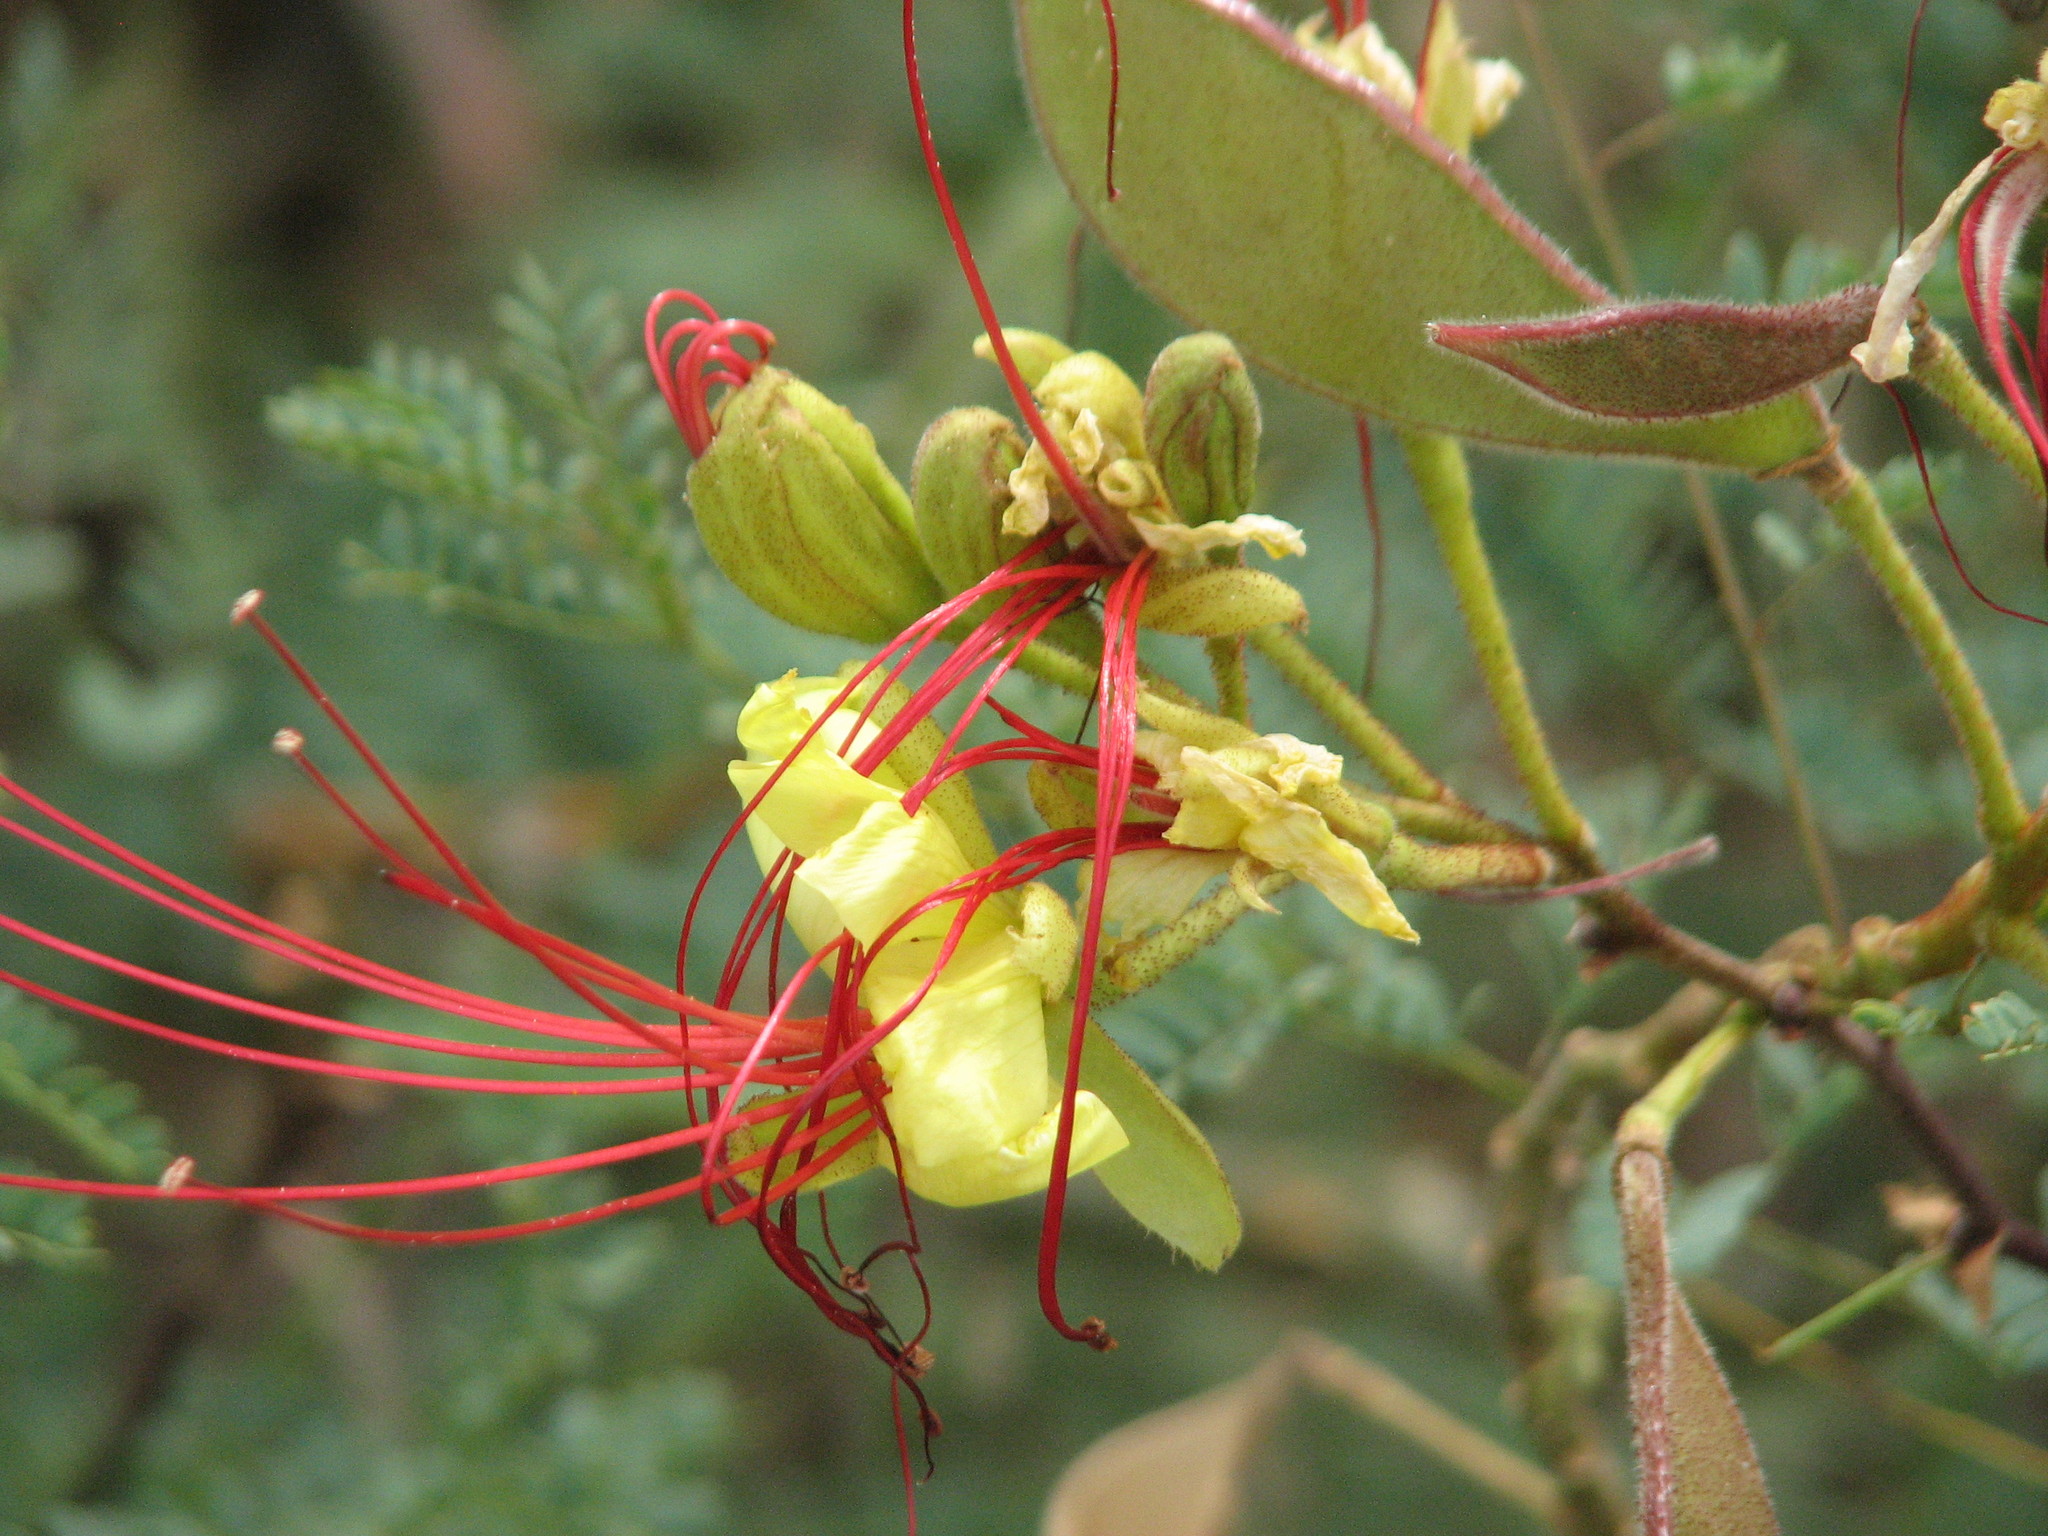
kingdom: Plantae
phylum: Tracheophyta
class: Magnoliopsida
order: Fabales
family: Fabaceae
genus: Erythrostemon
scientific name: Erythrostemon gilliesii
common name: Bird-of-paradise shrub
